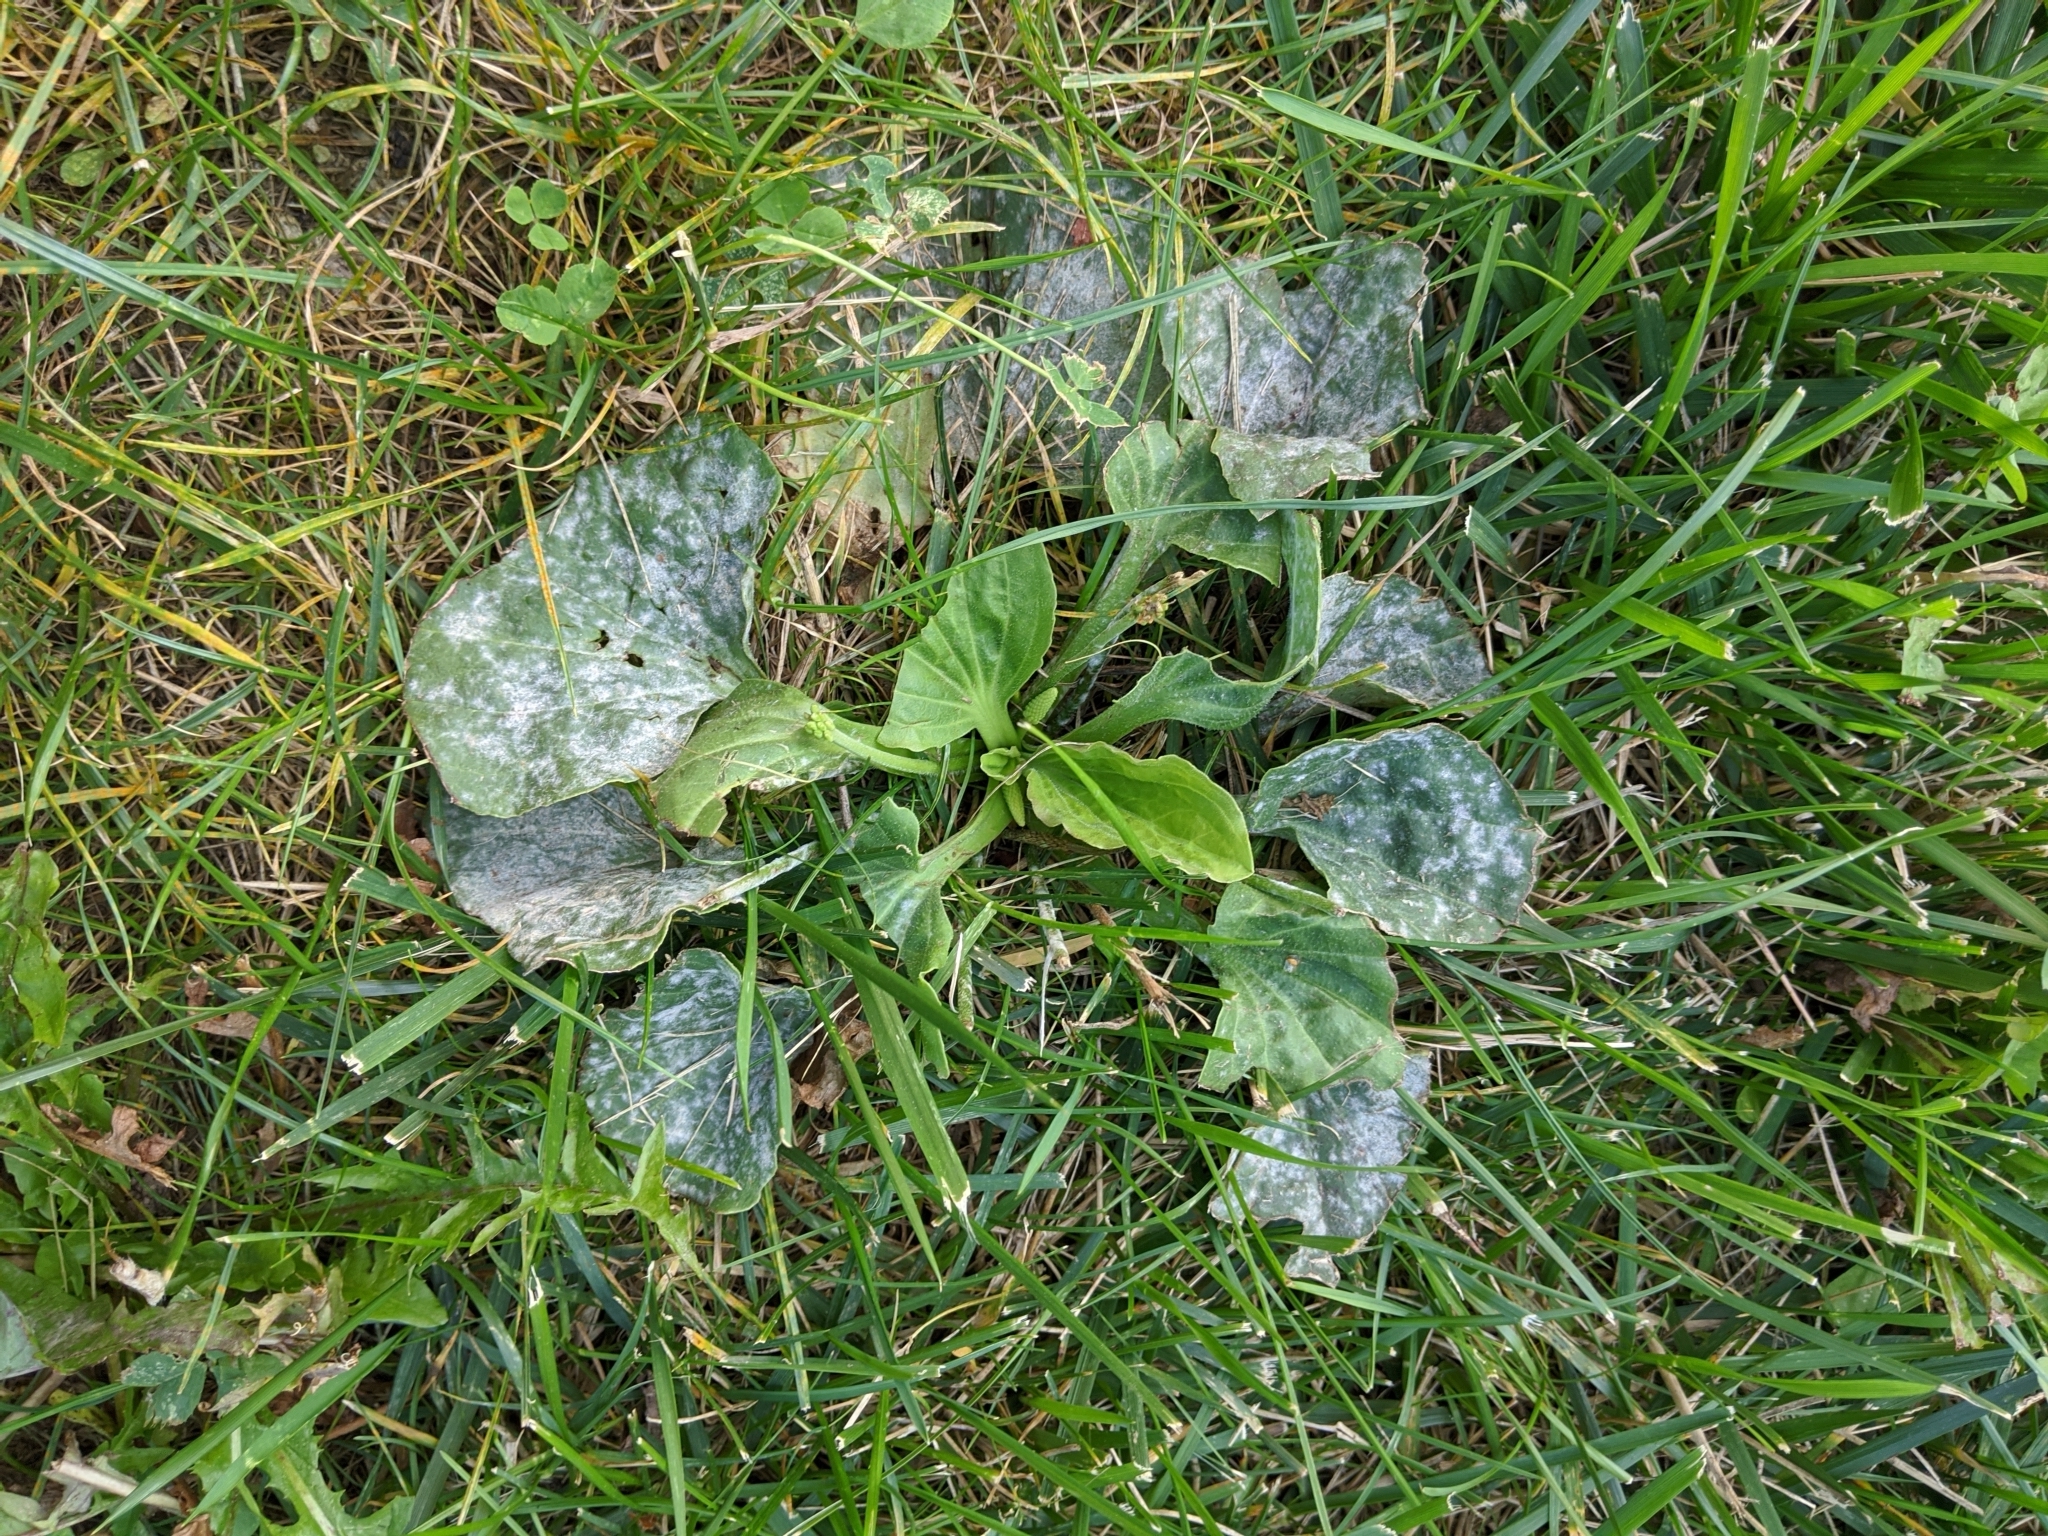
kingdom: Plantae
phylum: Tracheophyta
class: Magnoliopsida
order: Lamiales
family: Plantaginaceae
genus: Plantago
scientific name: Plantago major
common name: Common plantain
